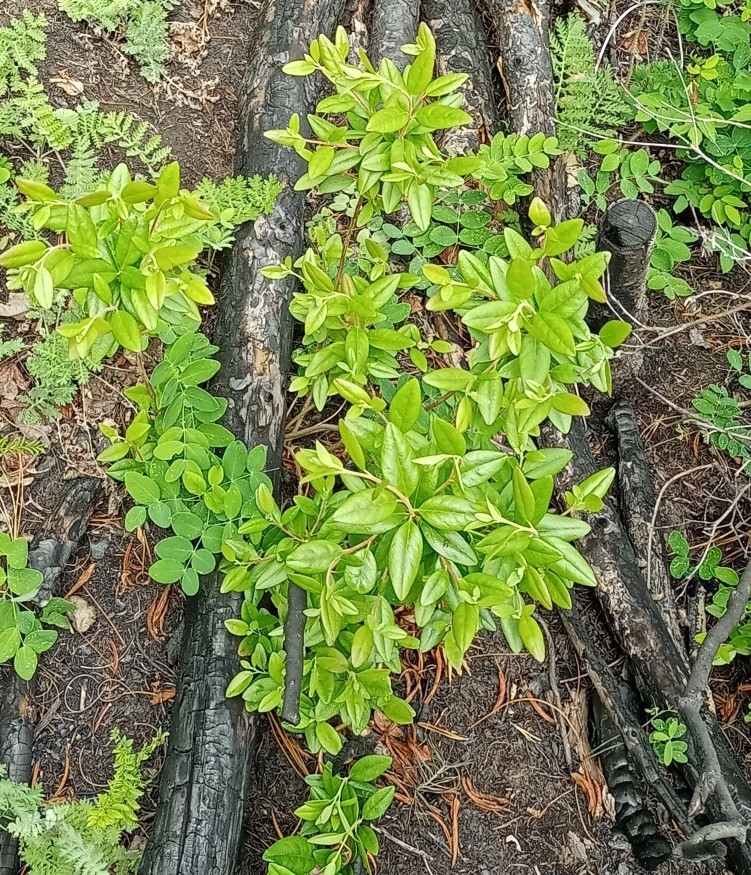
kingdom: Plantae
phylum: Tracheophyta
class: Magnoliopsida
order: Ericales
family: Ericaceae
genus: Rhododendron
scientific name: Rhododendron dauricum
